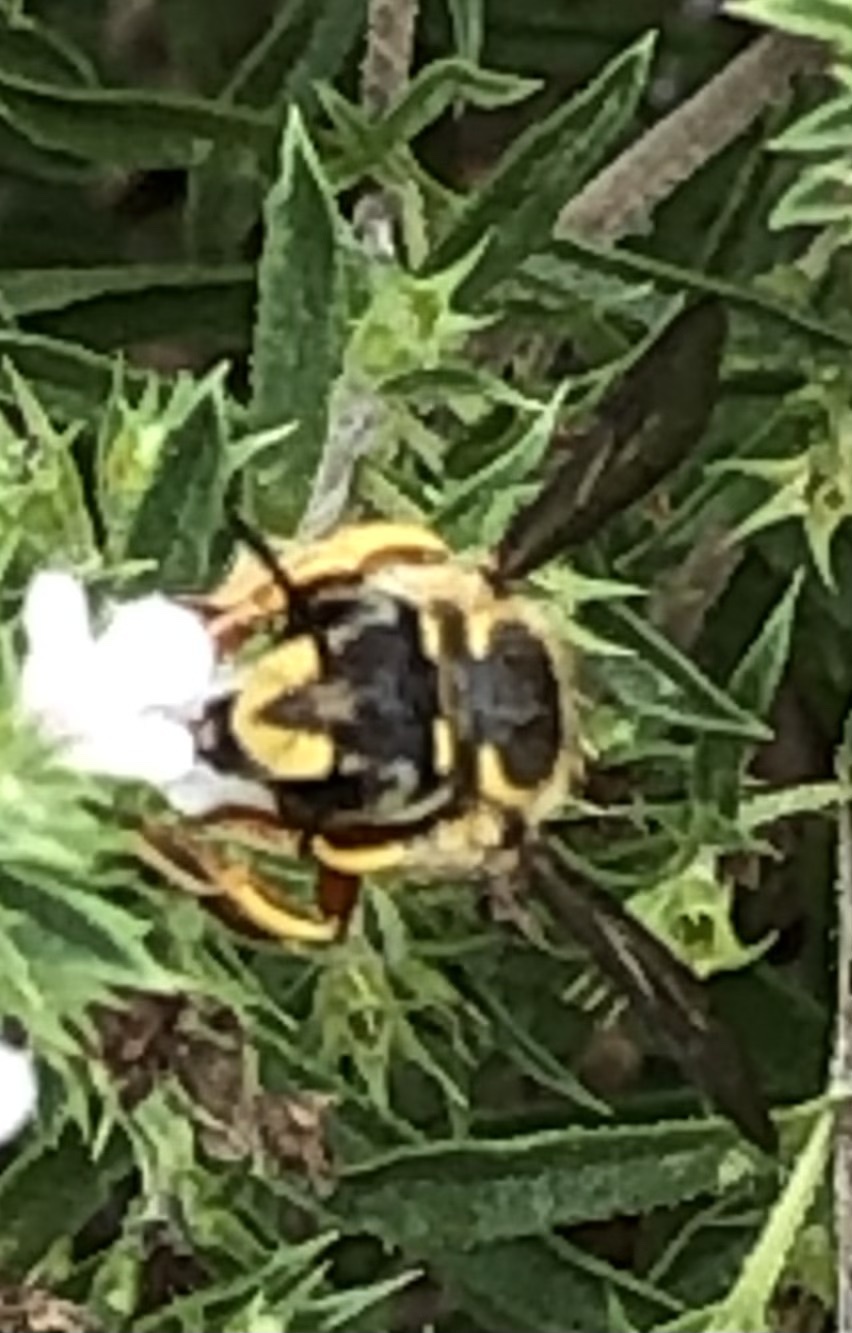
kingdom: Animalia
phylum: Arthropoda
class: Insecta
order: Hymenoptera
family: Megachilidae
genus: Anthidium
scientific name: Anthidium manicatum
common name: Wool carder bee
